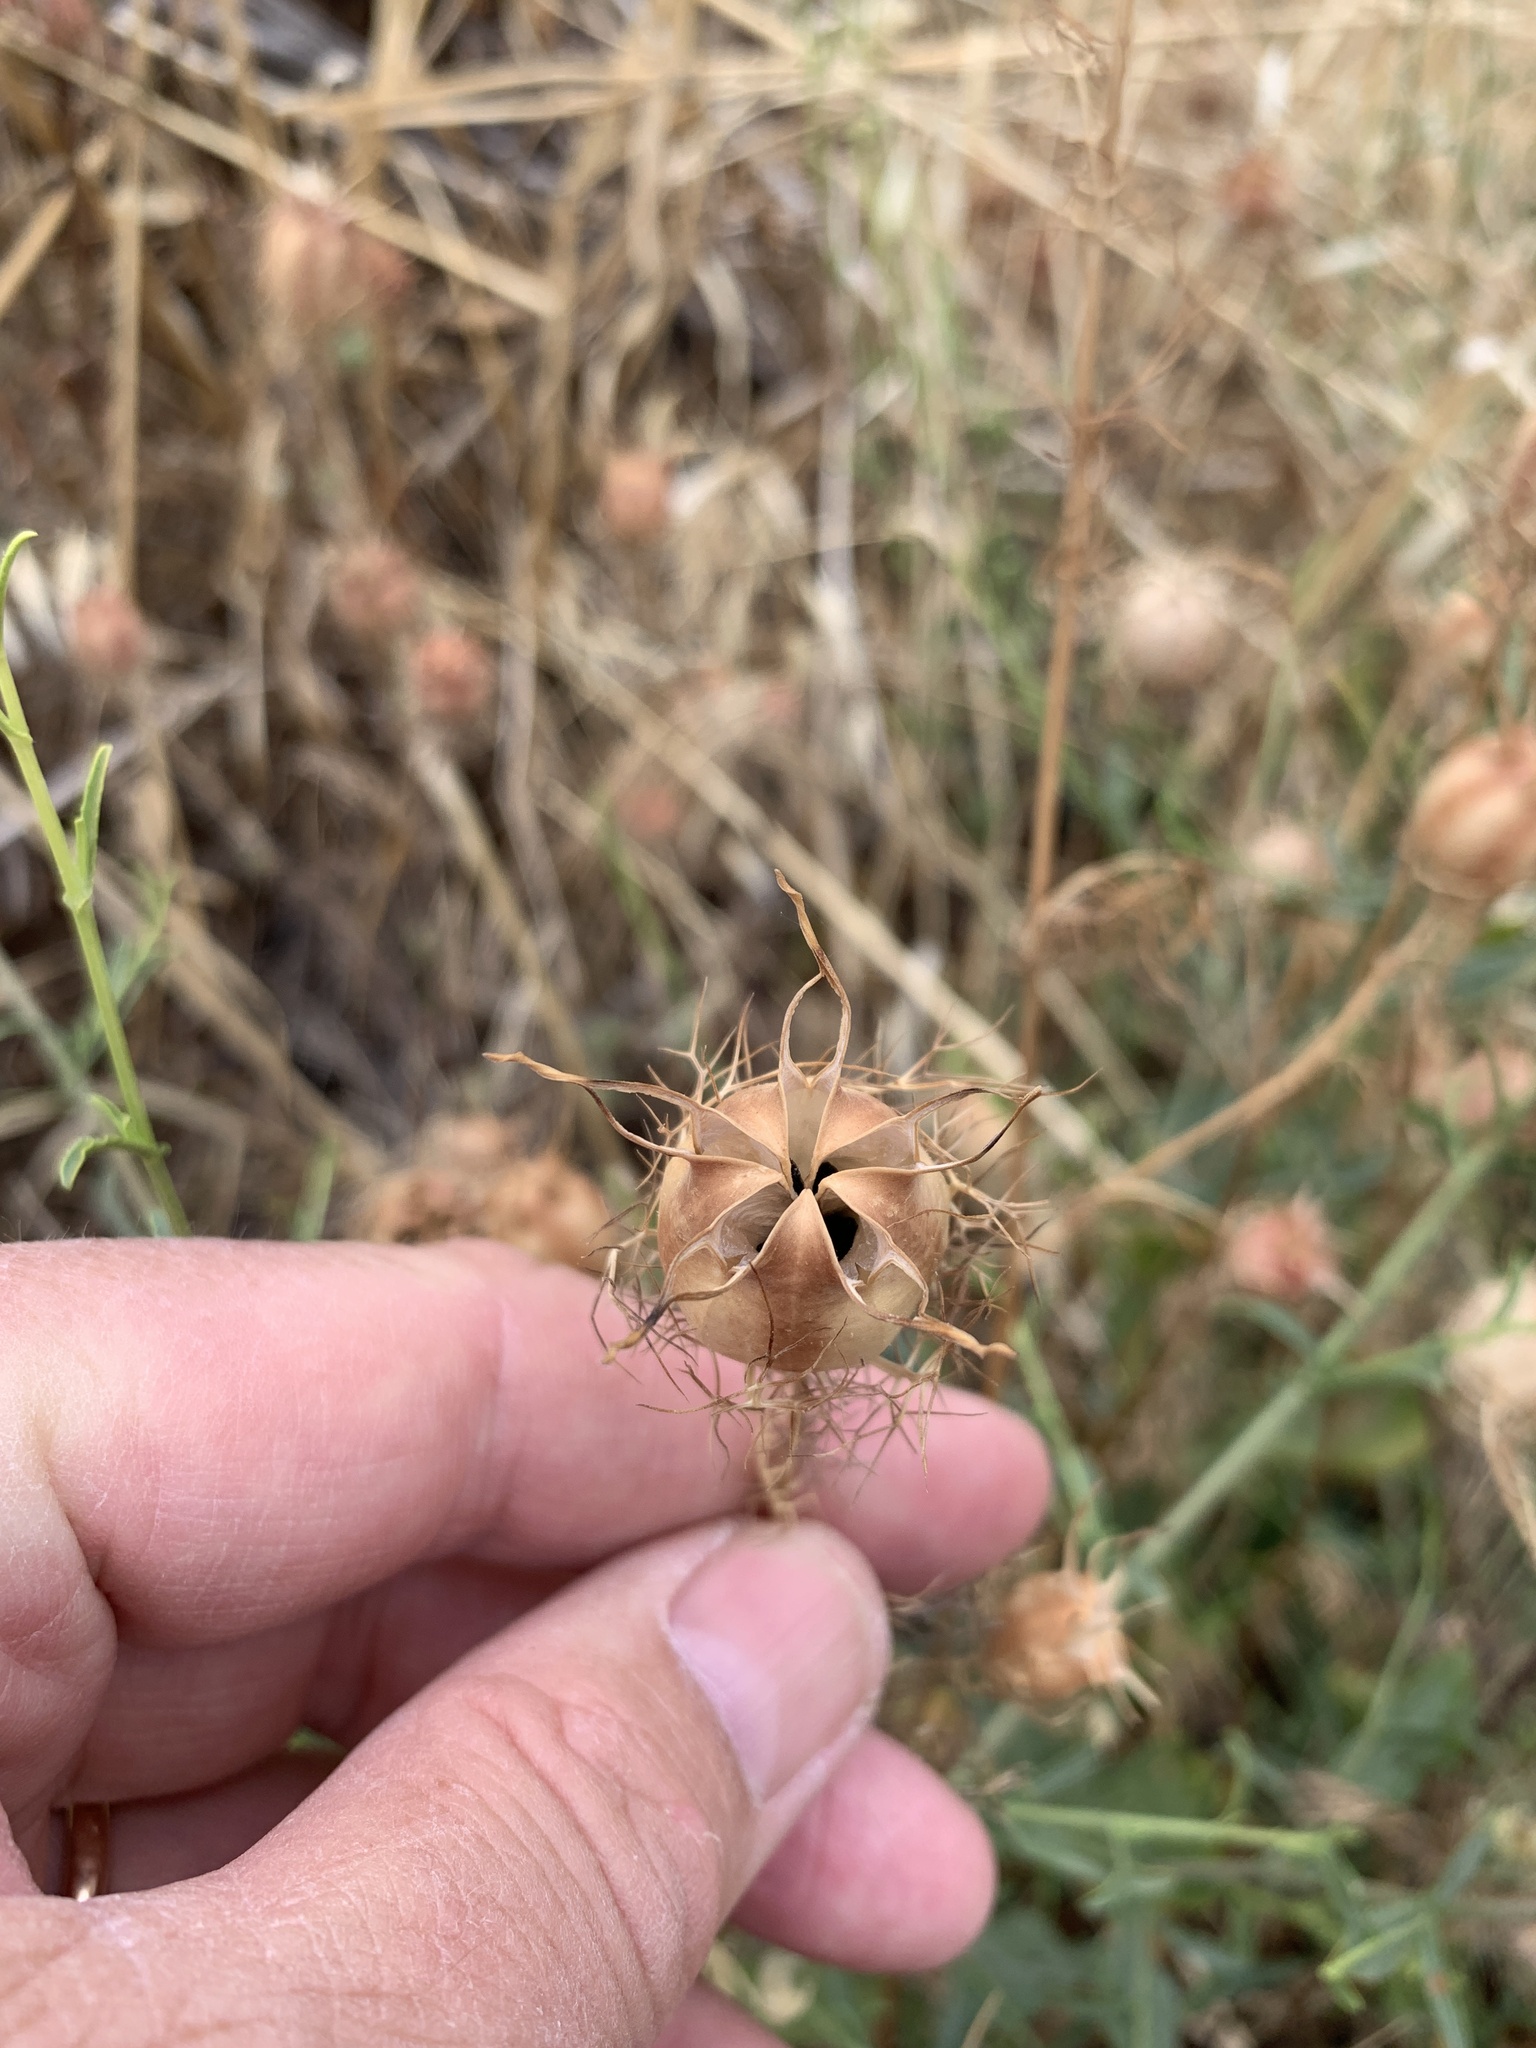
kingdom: Plantae
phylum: Tracheophyta
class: Magnoliopsida
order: Ranunculales
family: Ranunculaceae
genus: Nigella
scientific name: Nigella damascena
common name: Love-in-a-mist
